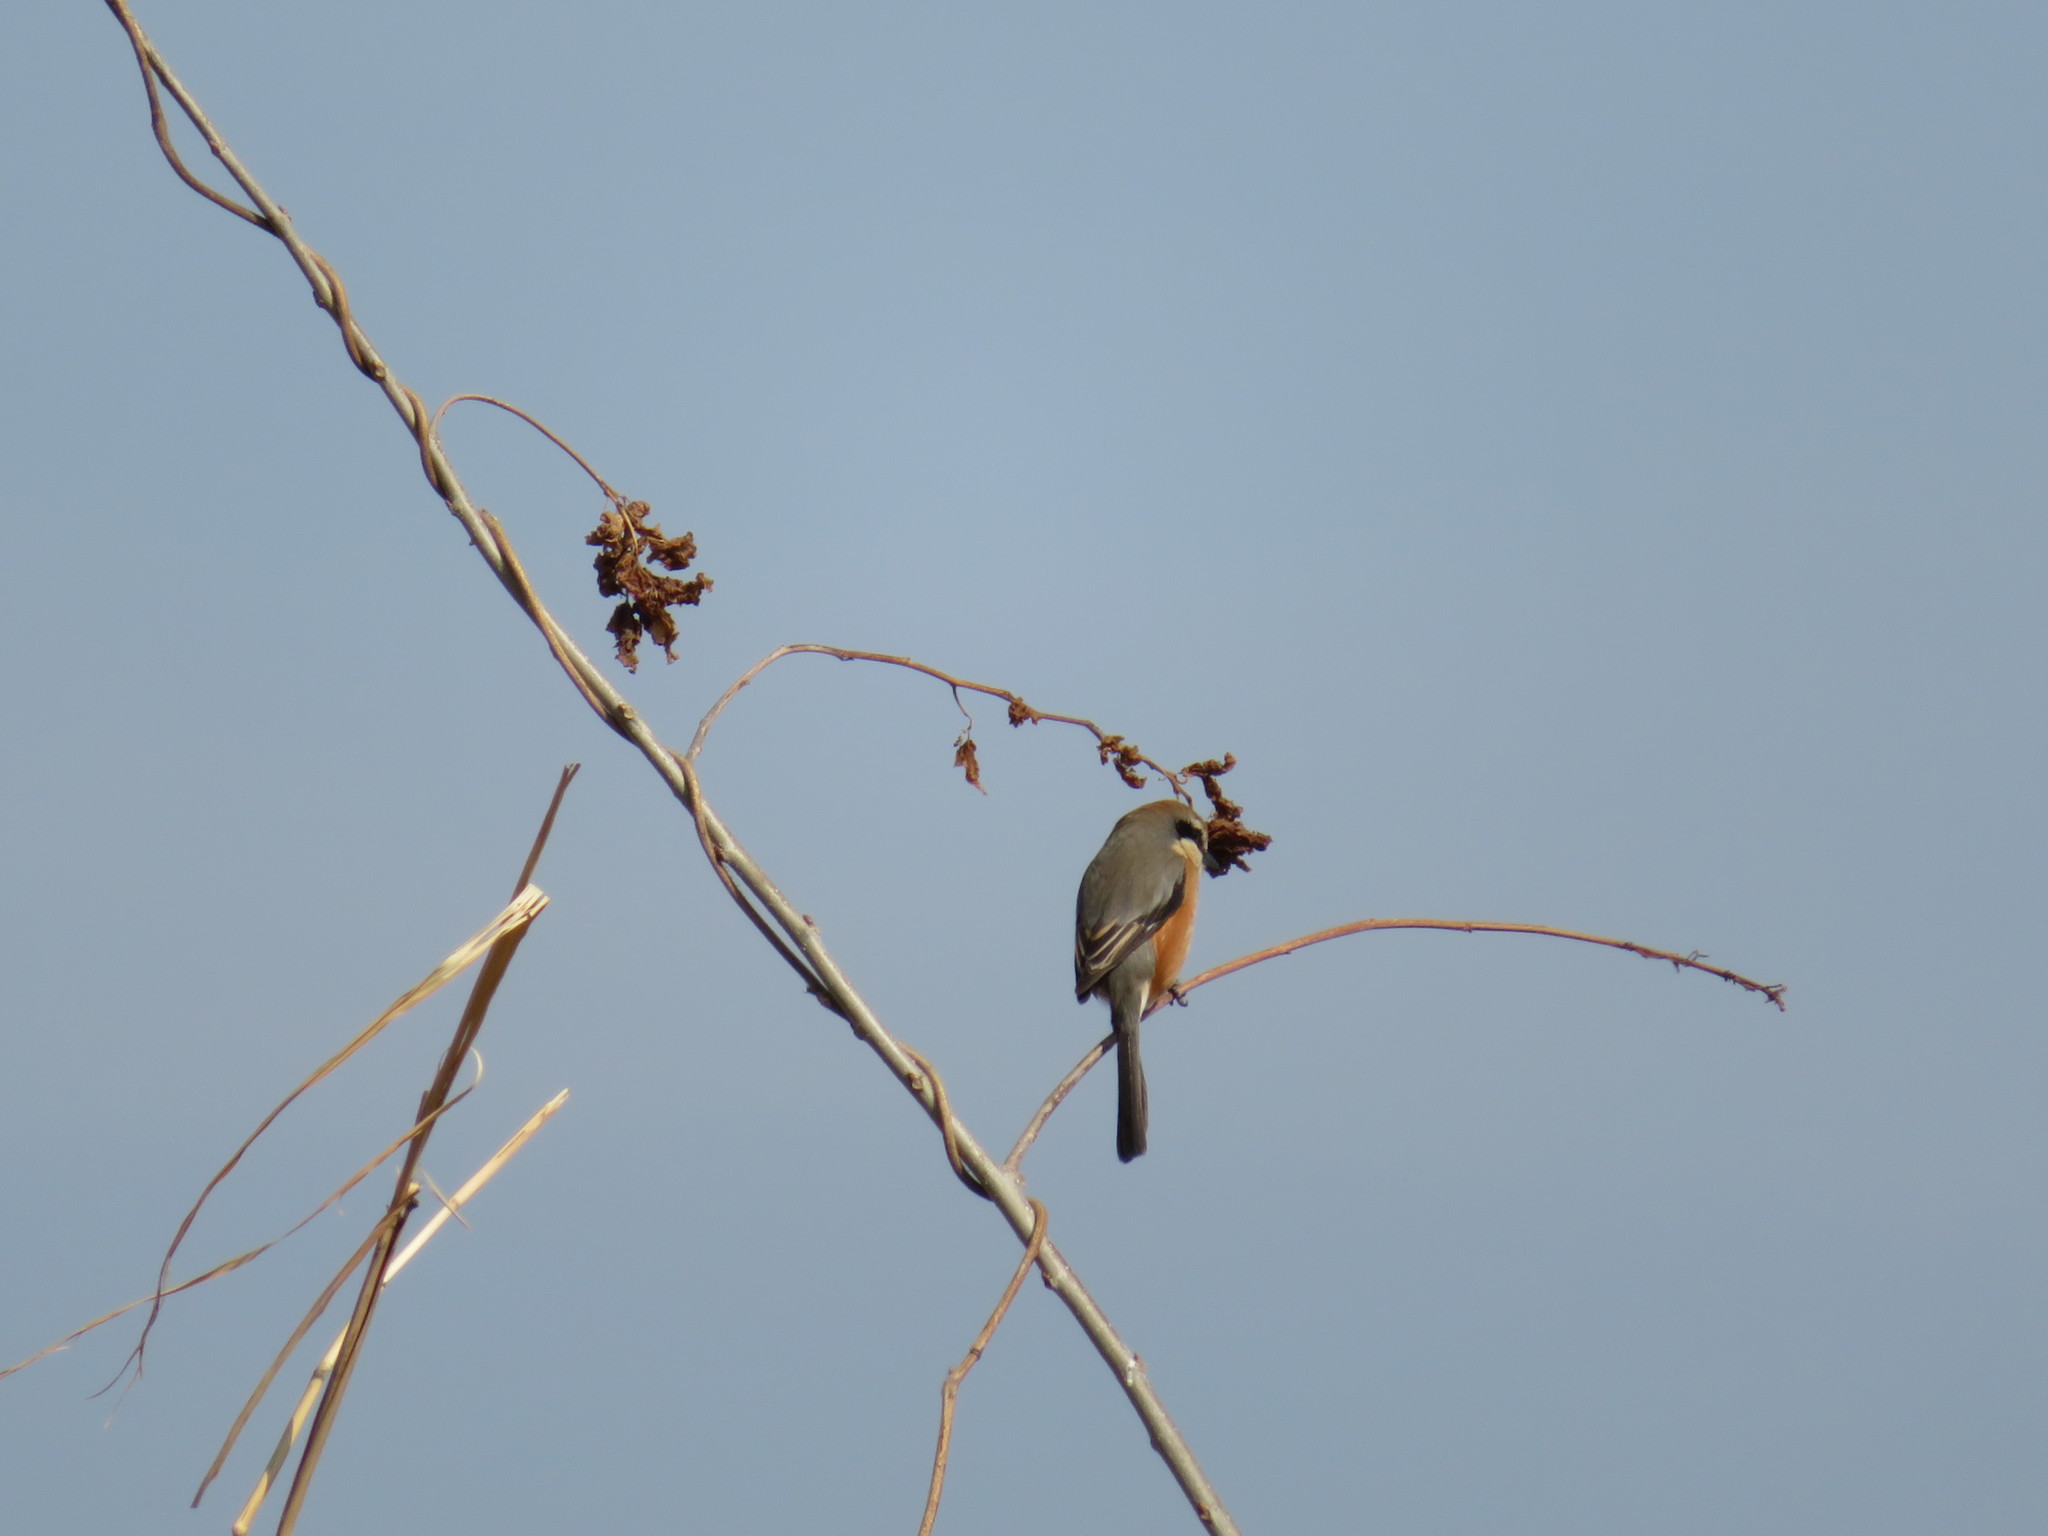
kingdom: Animalia
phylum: Chordata
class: Aves
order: Passeriformes
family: Laniidae
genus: Lanius
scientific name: Lanius bucephalus
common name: Bull-headed shrike
